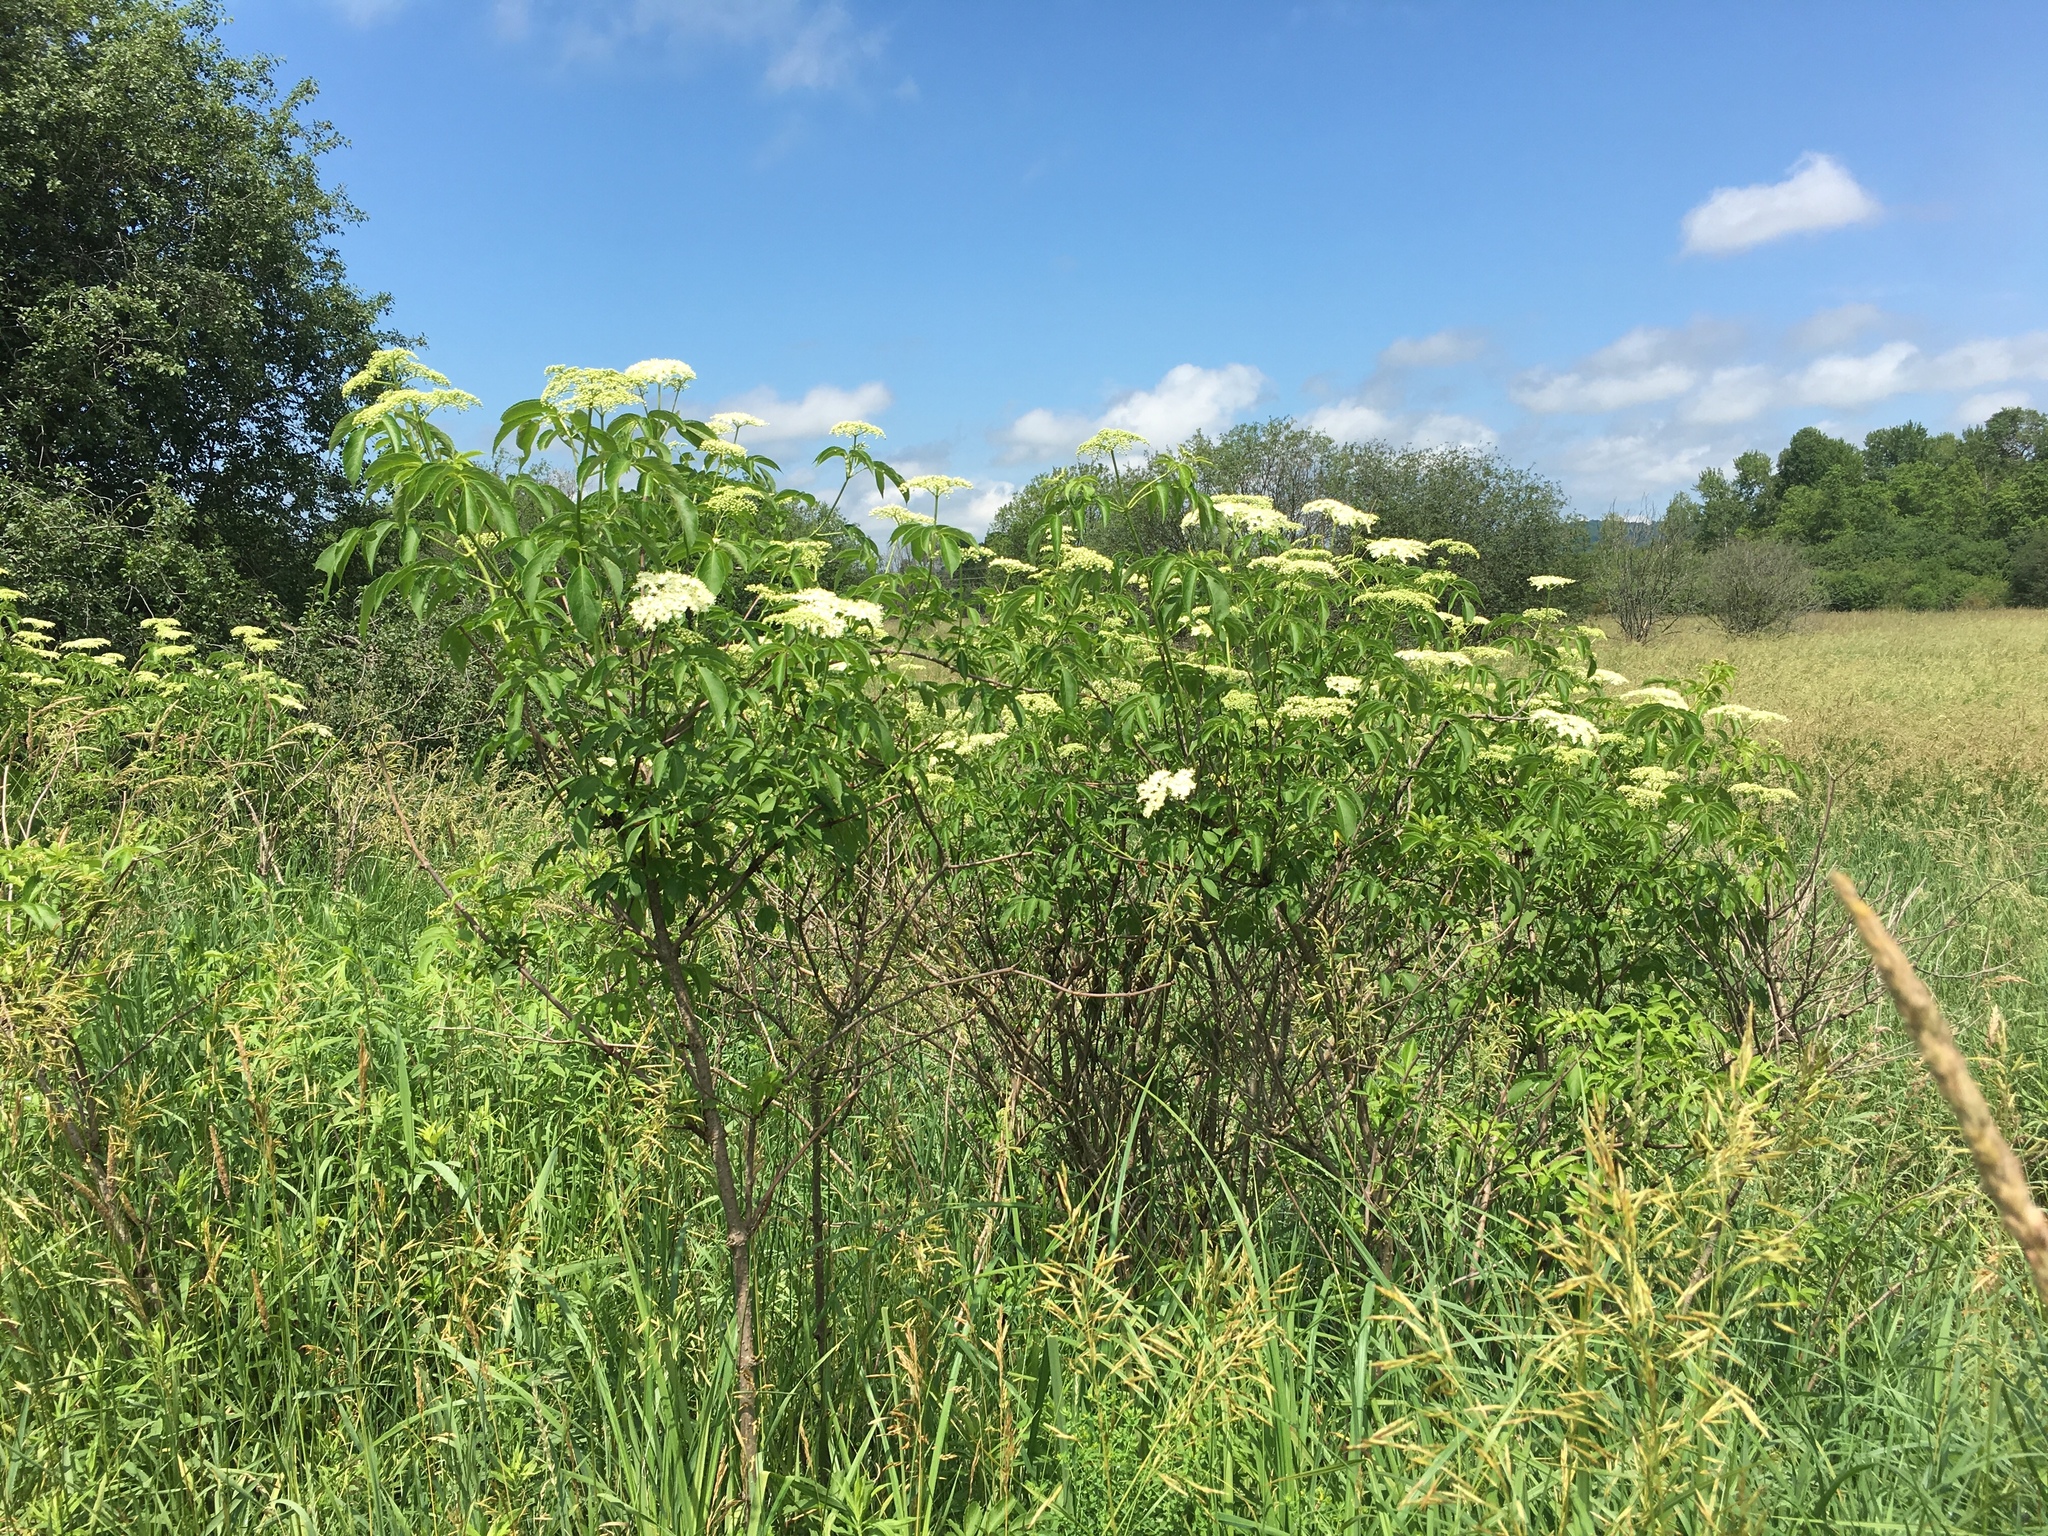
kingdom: Plantae
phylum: Tracheophyta
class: Magnoliopsida
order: Dipsacales
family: Viburnaceae
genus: Sambucus
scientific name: Sambucus canadensis
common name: American elder
